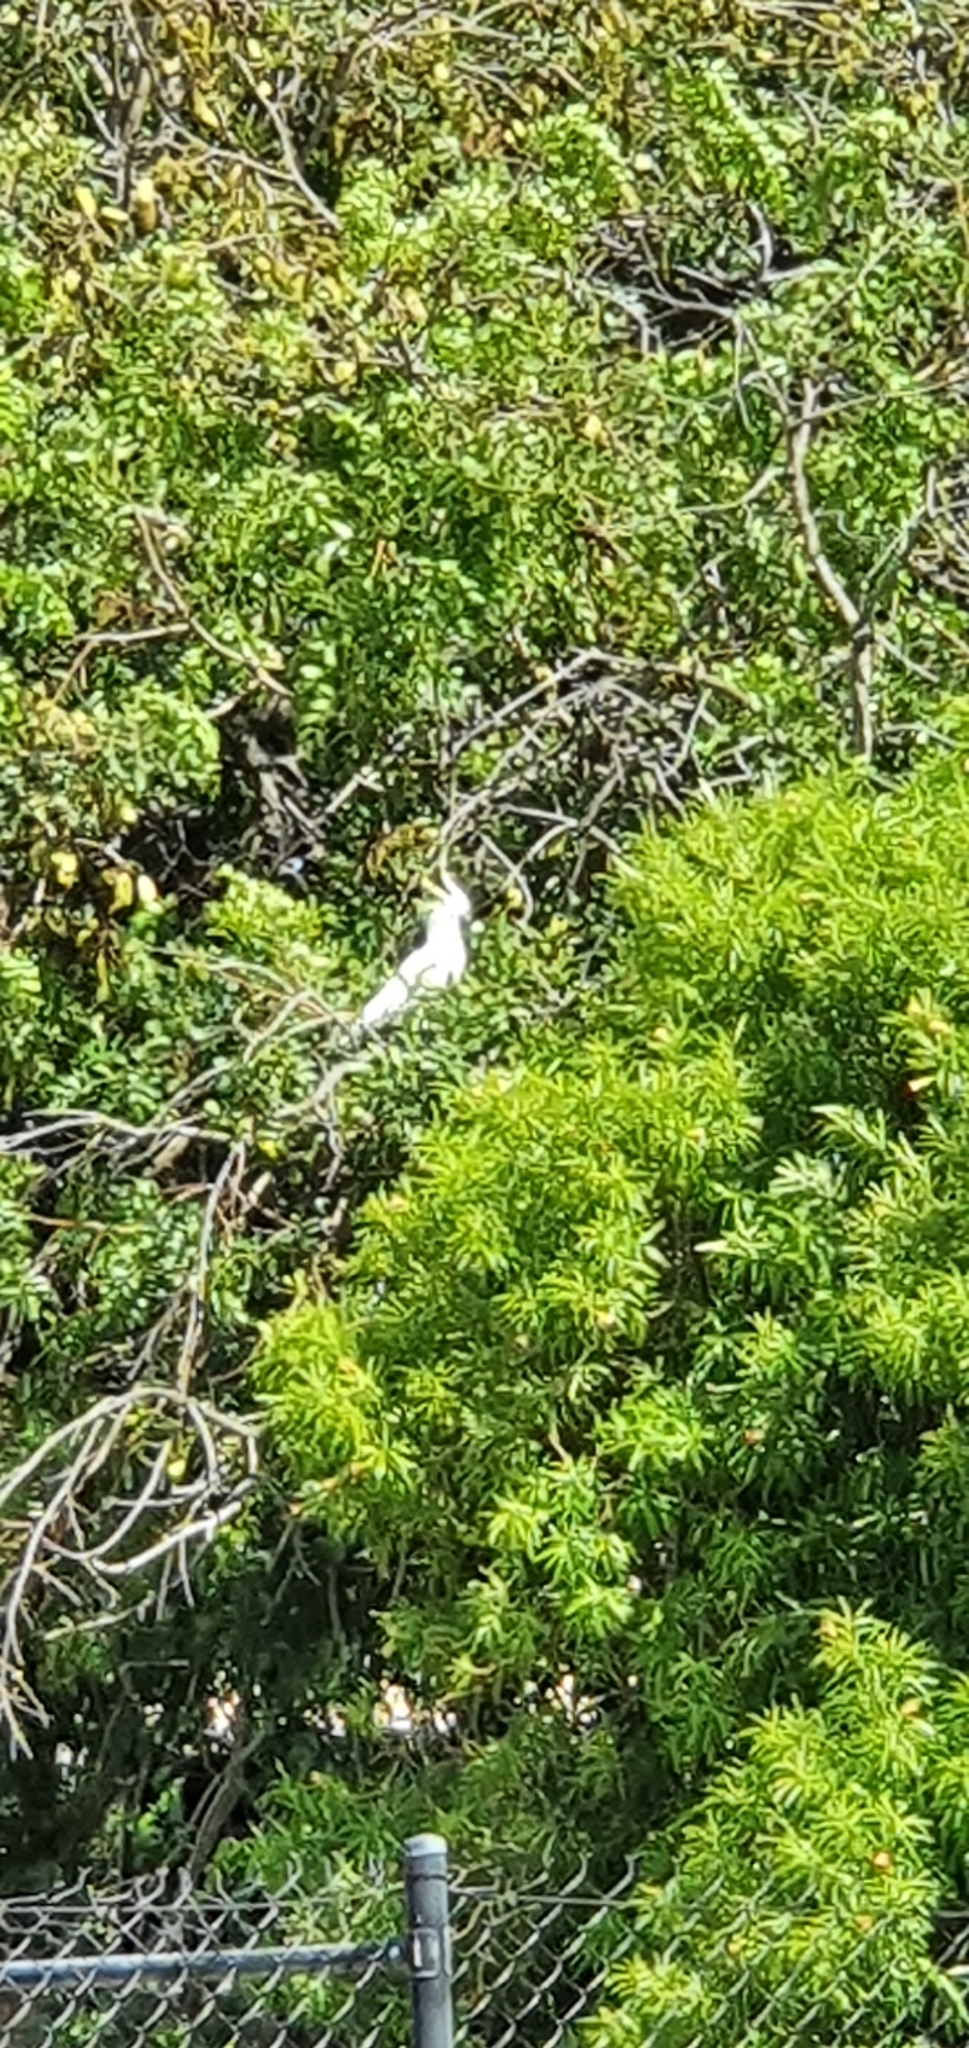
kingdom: Animalia
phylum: Chordata
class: Aves
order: Psittaciformes
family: Psittacidae
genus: Cacatua
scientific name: Cacatua galerita
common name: Sulphur-crested cockatoo
